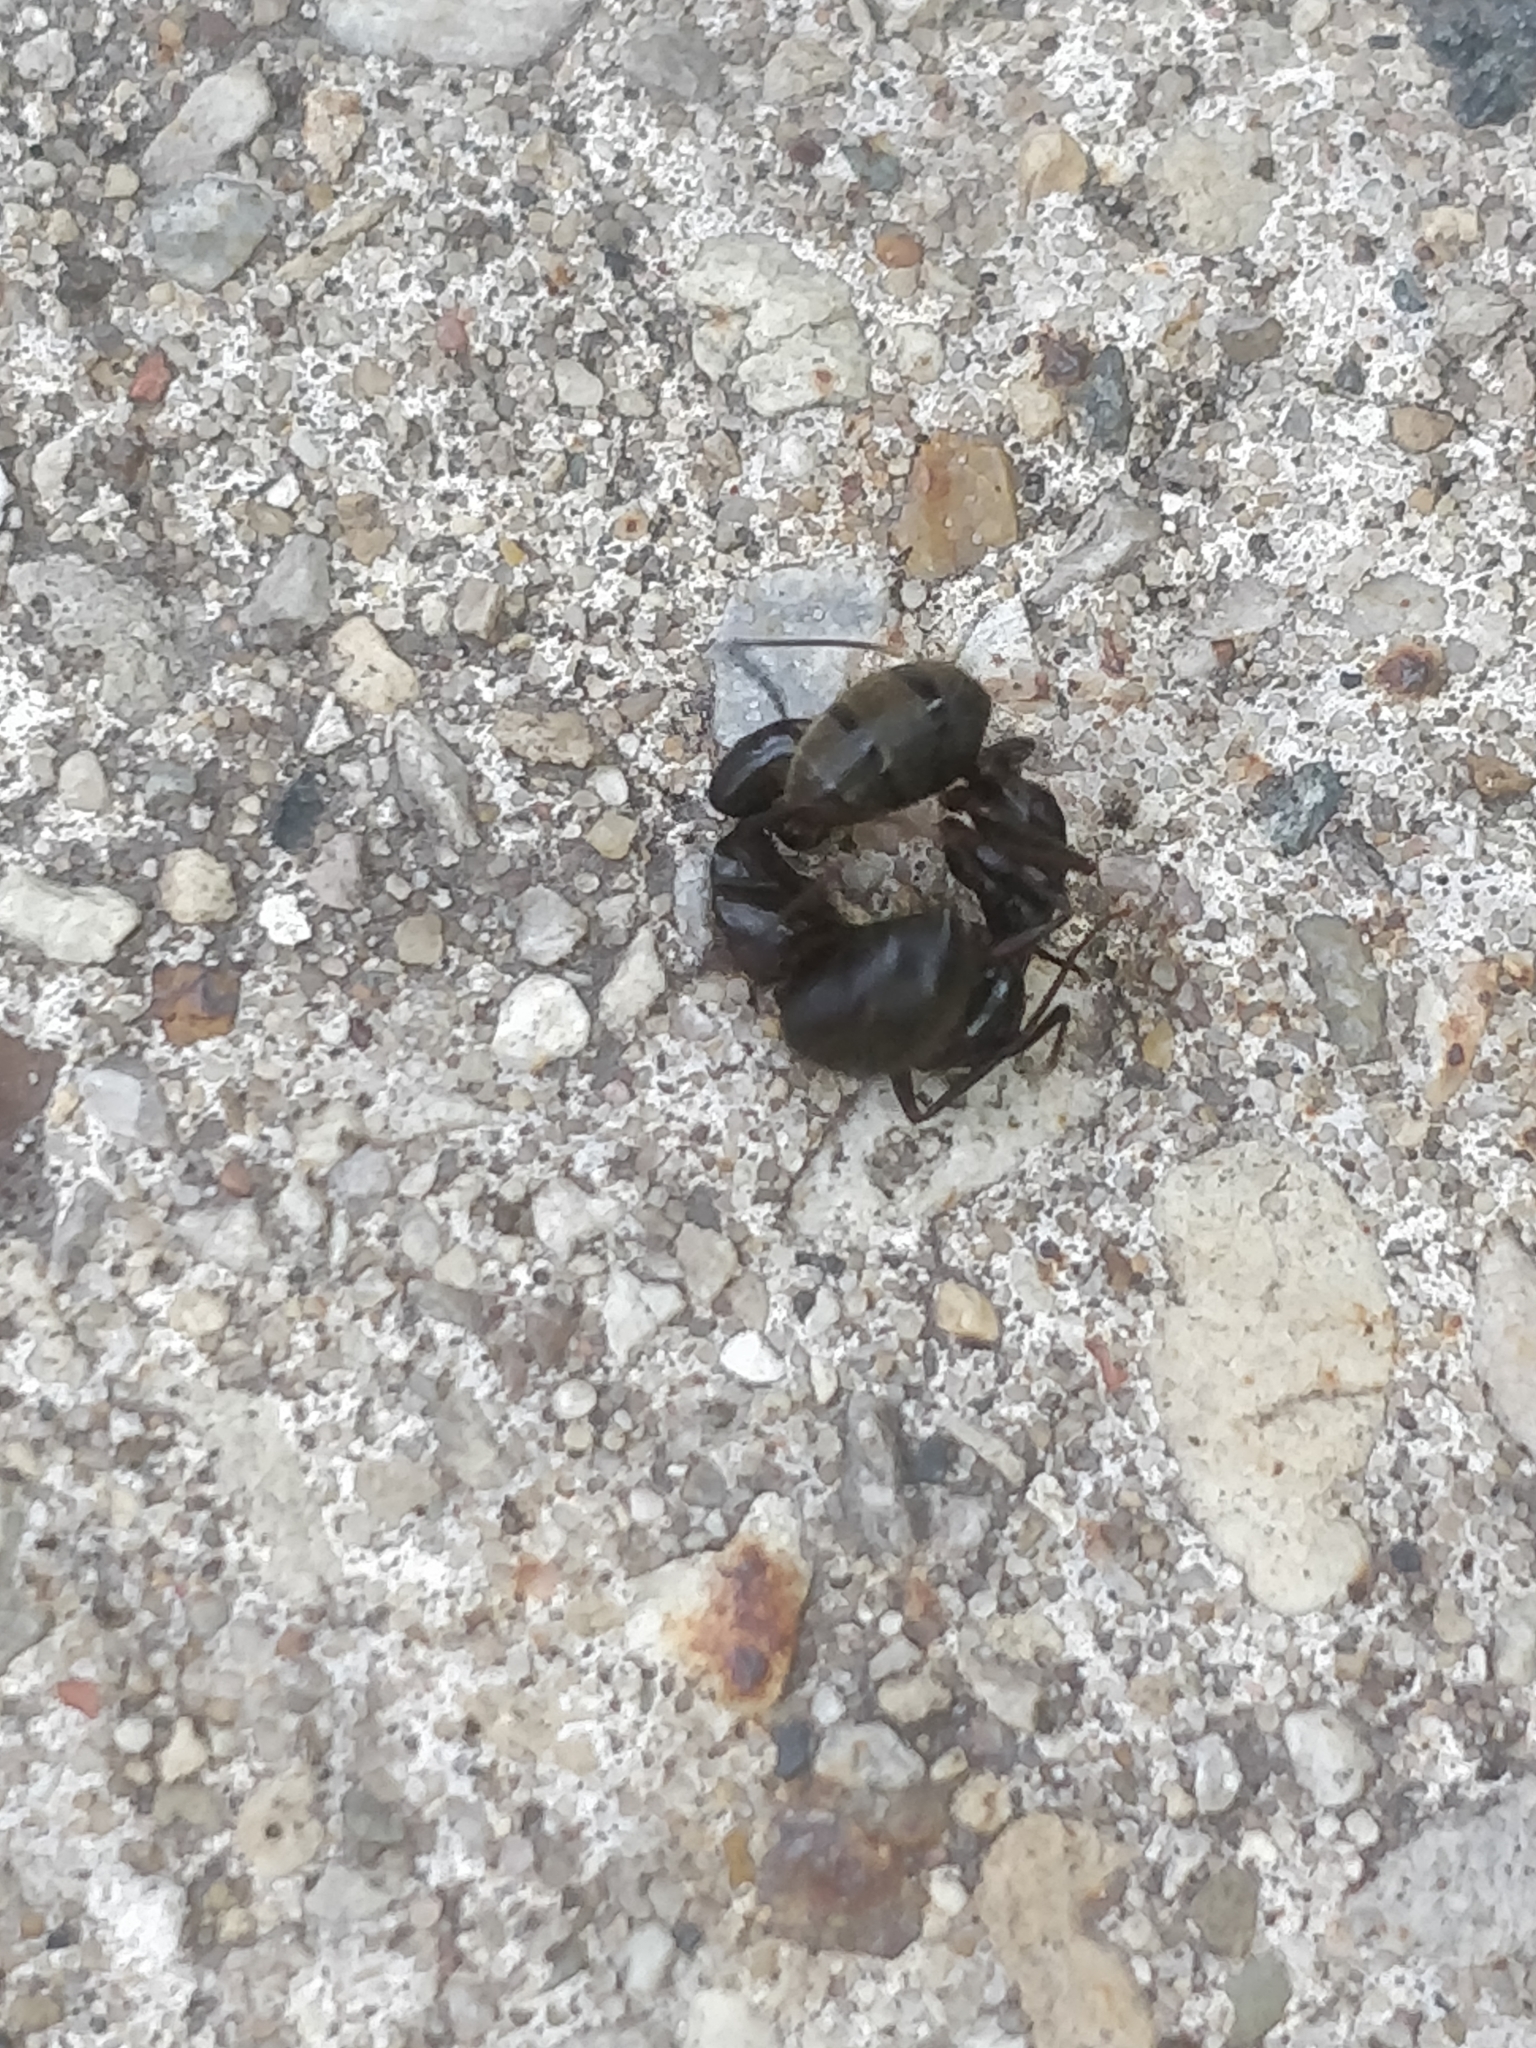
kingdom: Animalia
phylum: Arthropoda
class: Insecta
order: Hymenoptera
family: Formicidae
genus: Camponotus
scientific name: Camponotus pennsylvanicus
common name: Black carpenter ant
